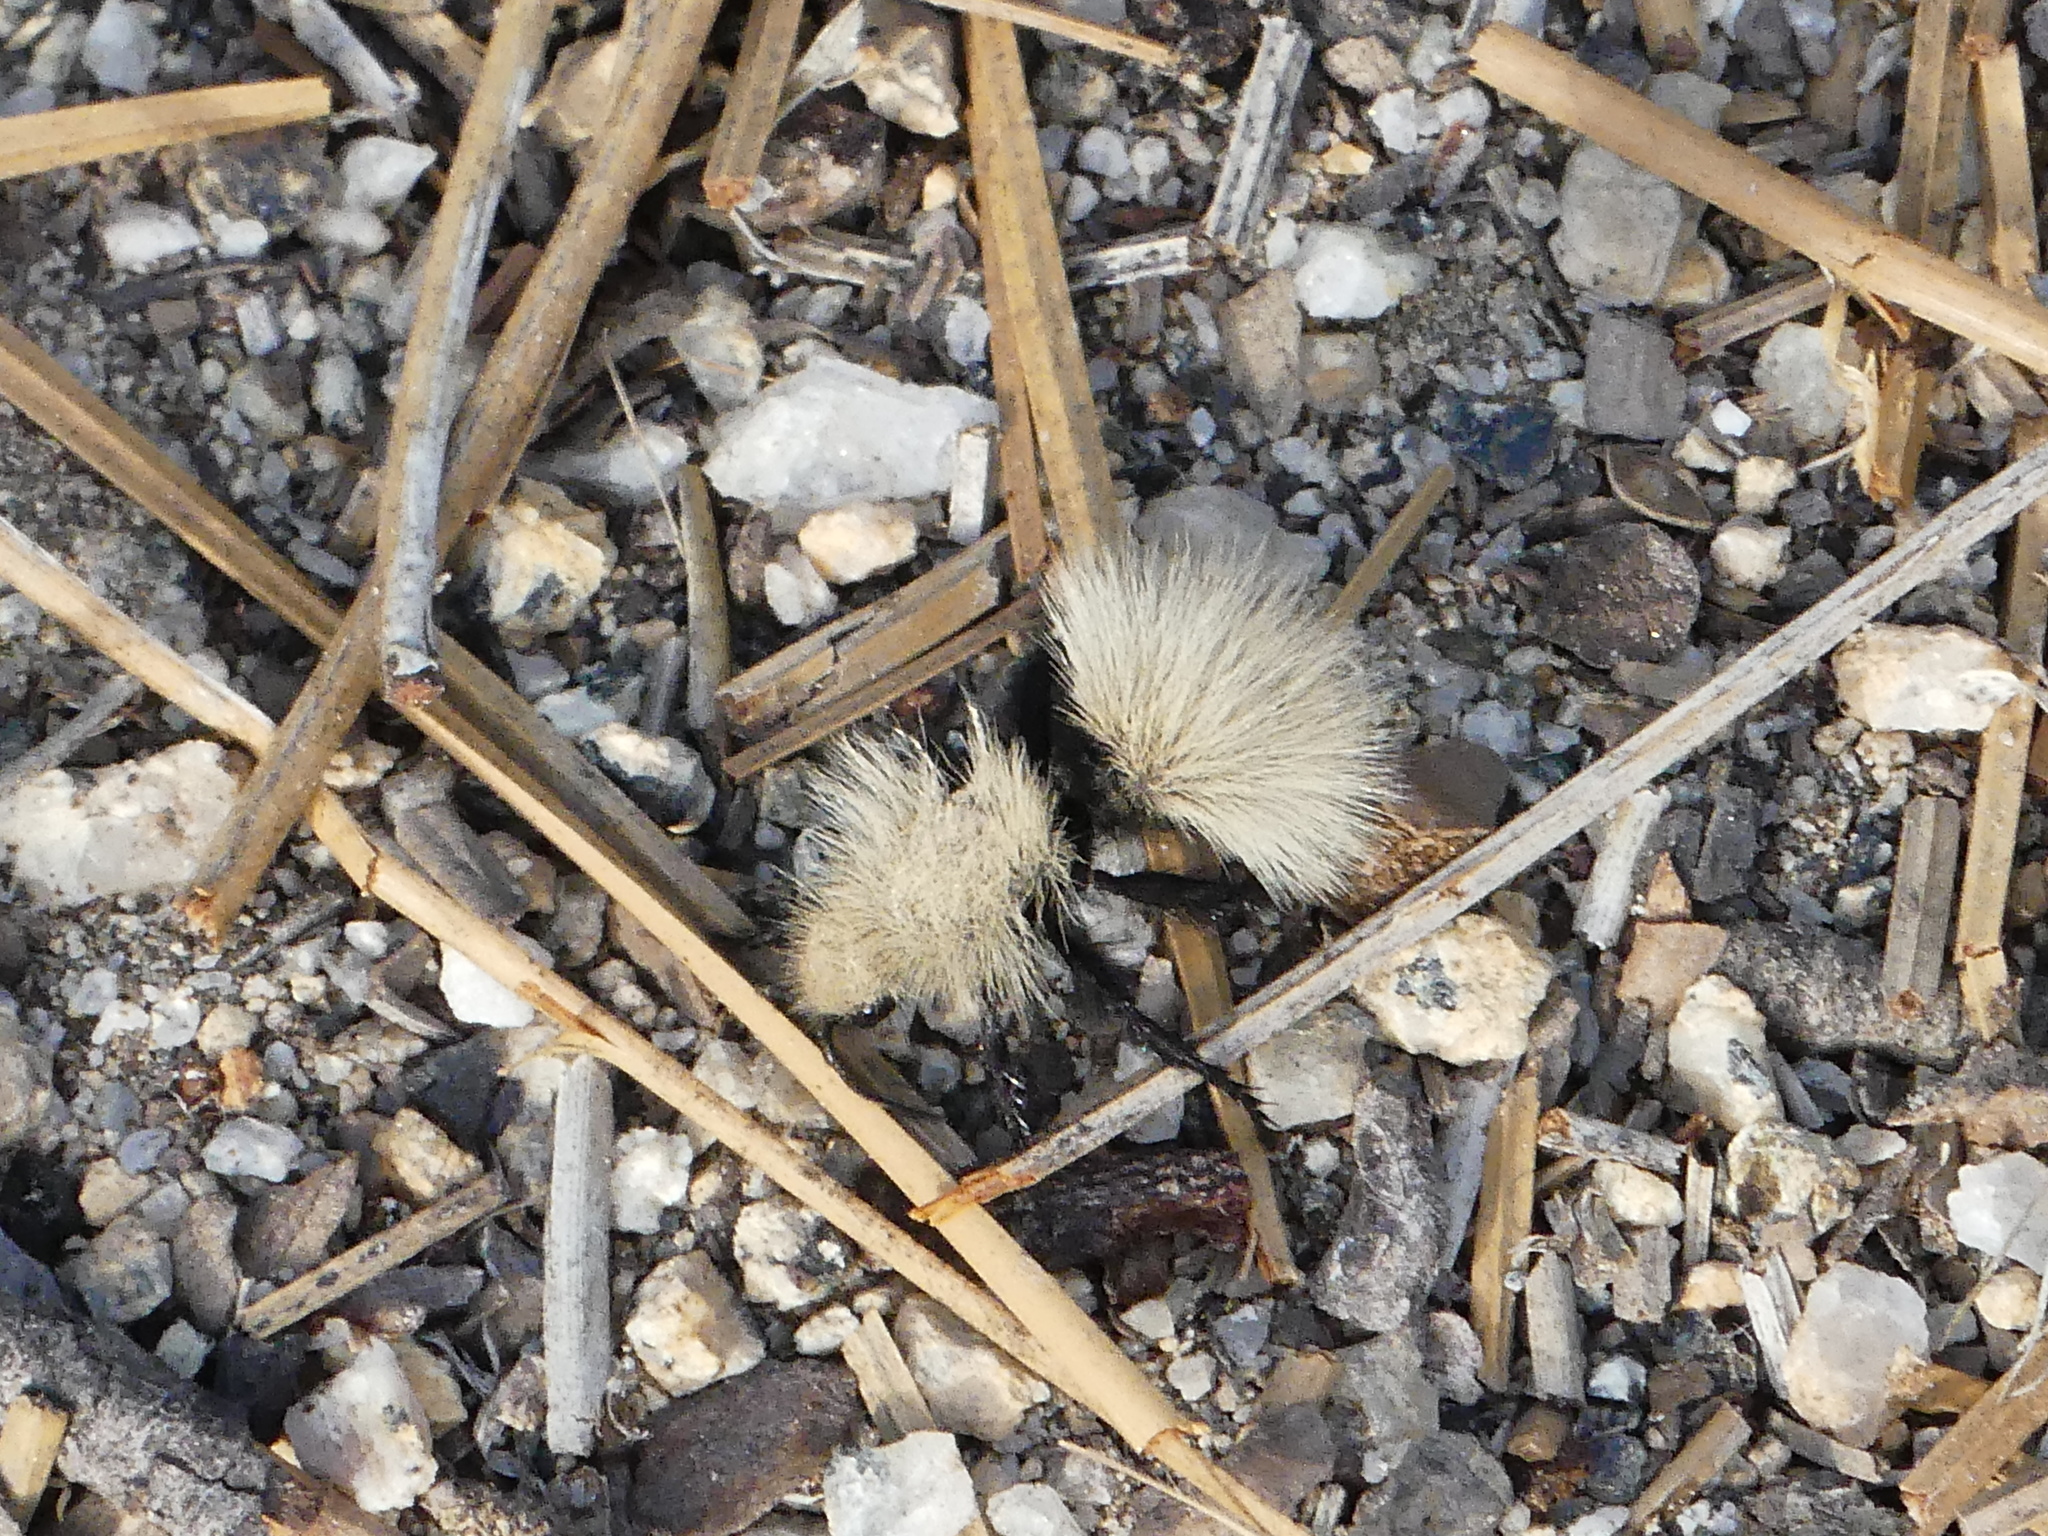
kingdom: Animalia
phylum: Arthropoda
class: Insecta
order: Hymenoptera
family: Mutillidae
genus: Dasymutilla
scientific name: Dasymutilla
